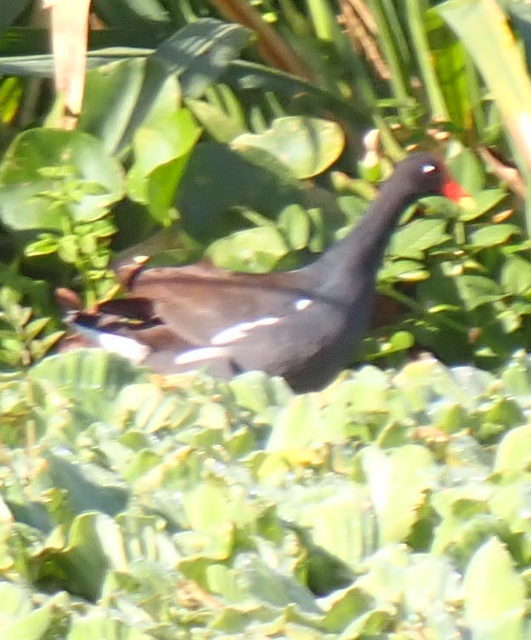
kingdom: Animalia
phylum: Chordata
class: Aves
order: Gruiformes
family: Rallidae
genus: Gallinula
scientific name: Gallinula chloropus
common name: Common moorhen
